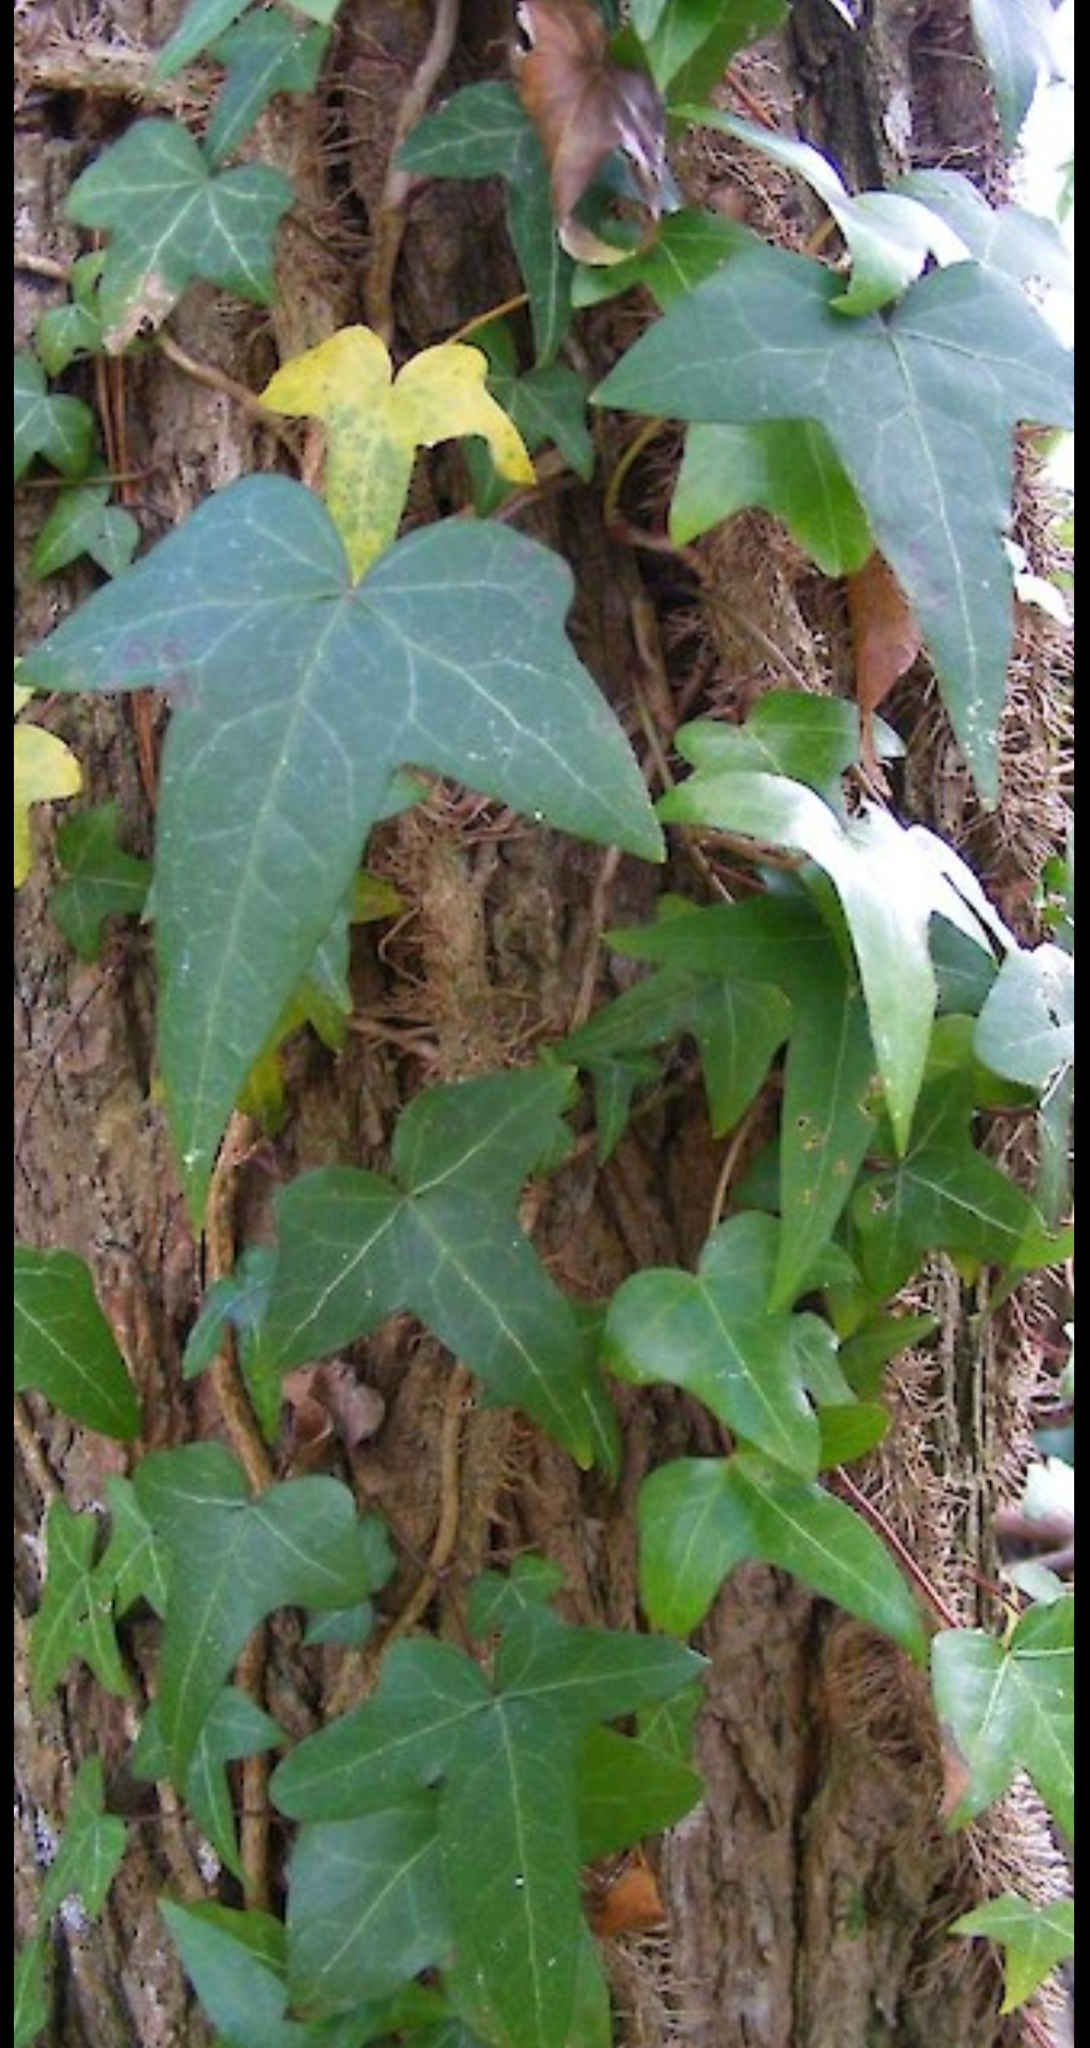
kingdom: Plantae
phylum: Tracheophyta
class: Magnoliopsida
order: Apiales
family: Araliaceae
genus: Hedera
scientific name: Hedera helix
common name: Ivy
